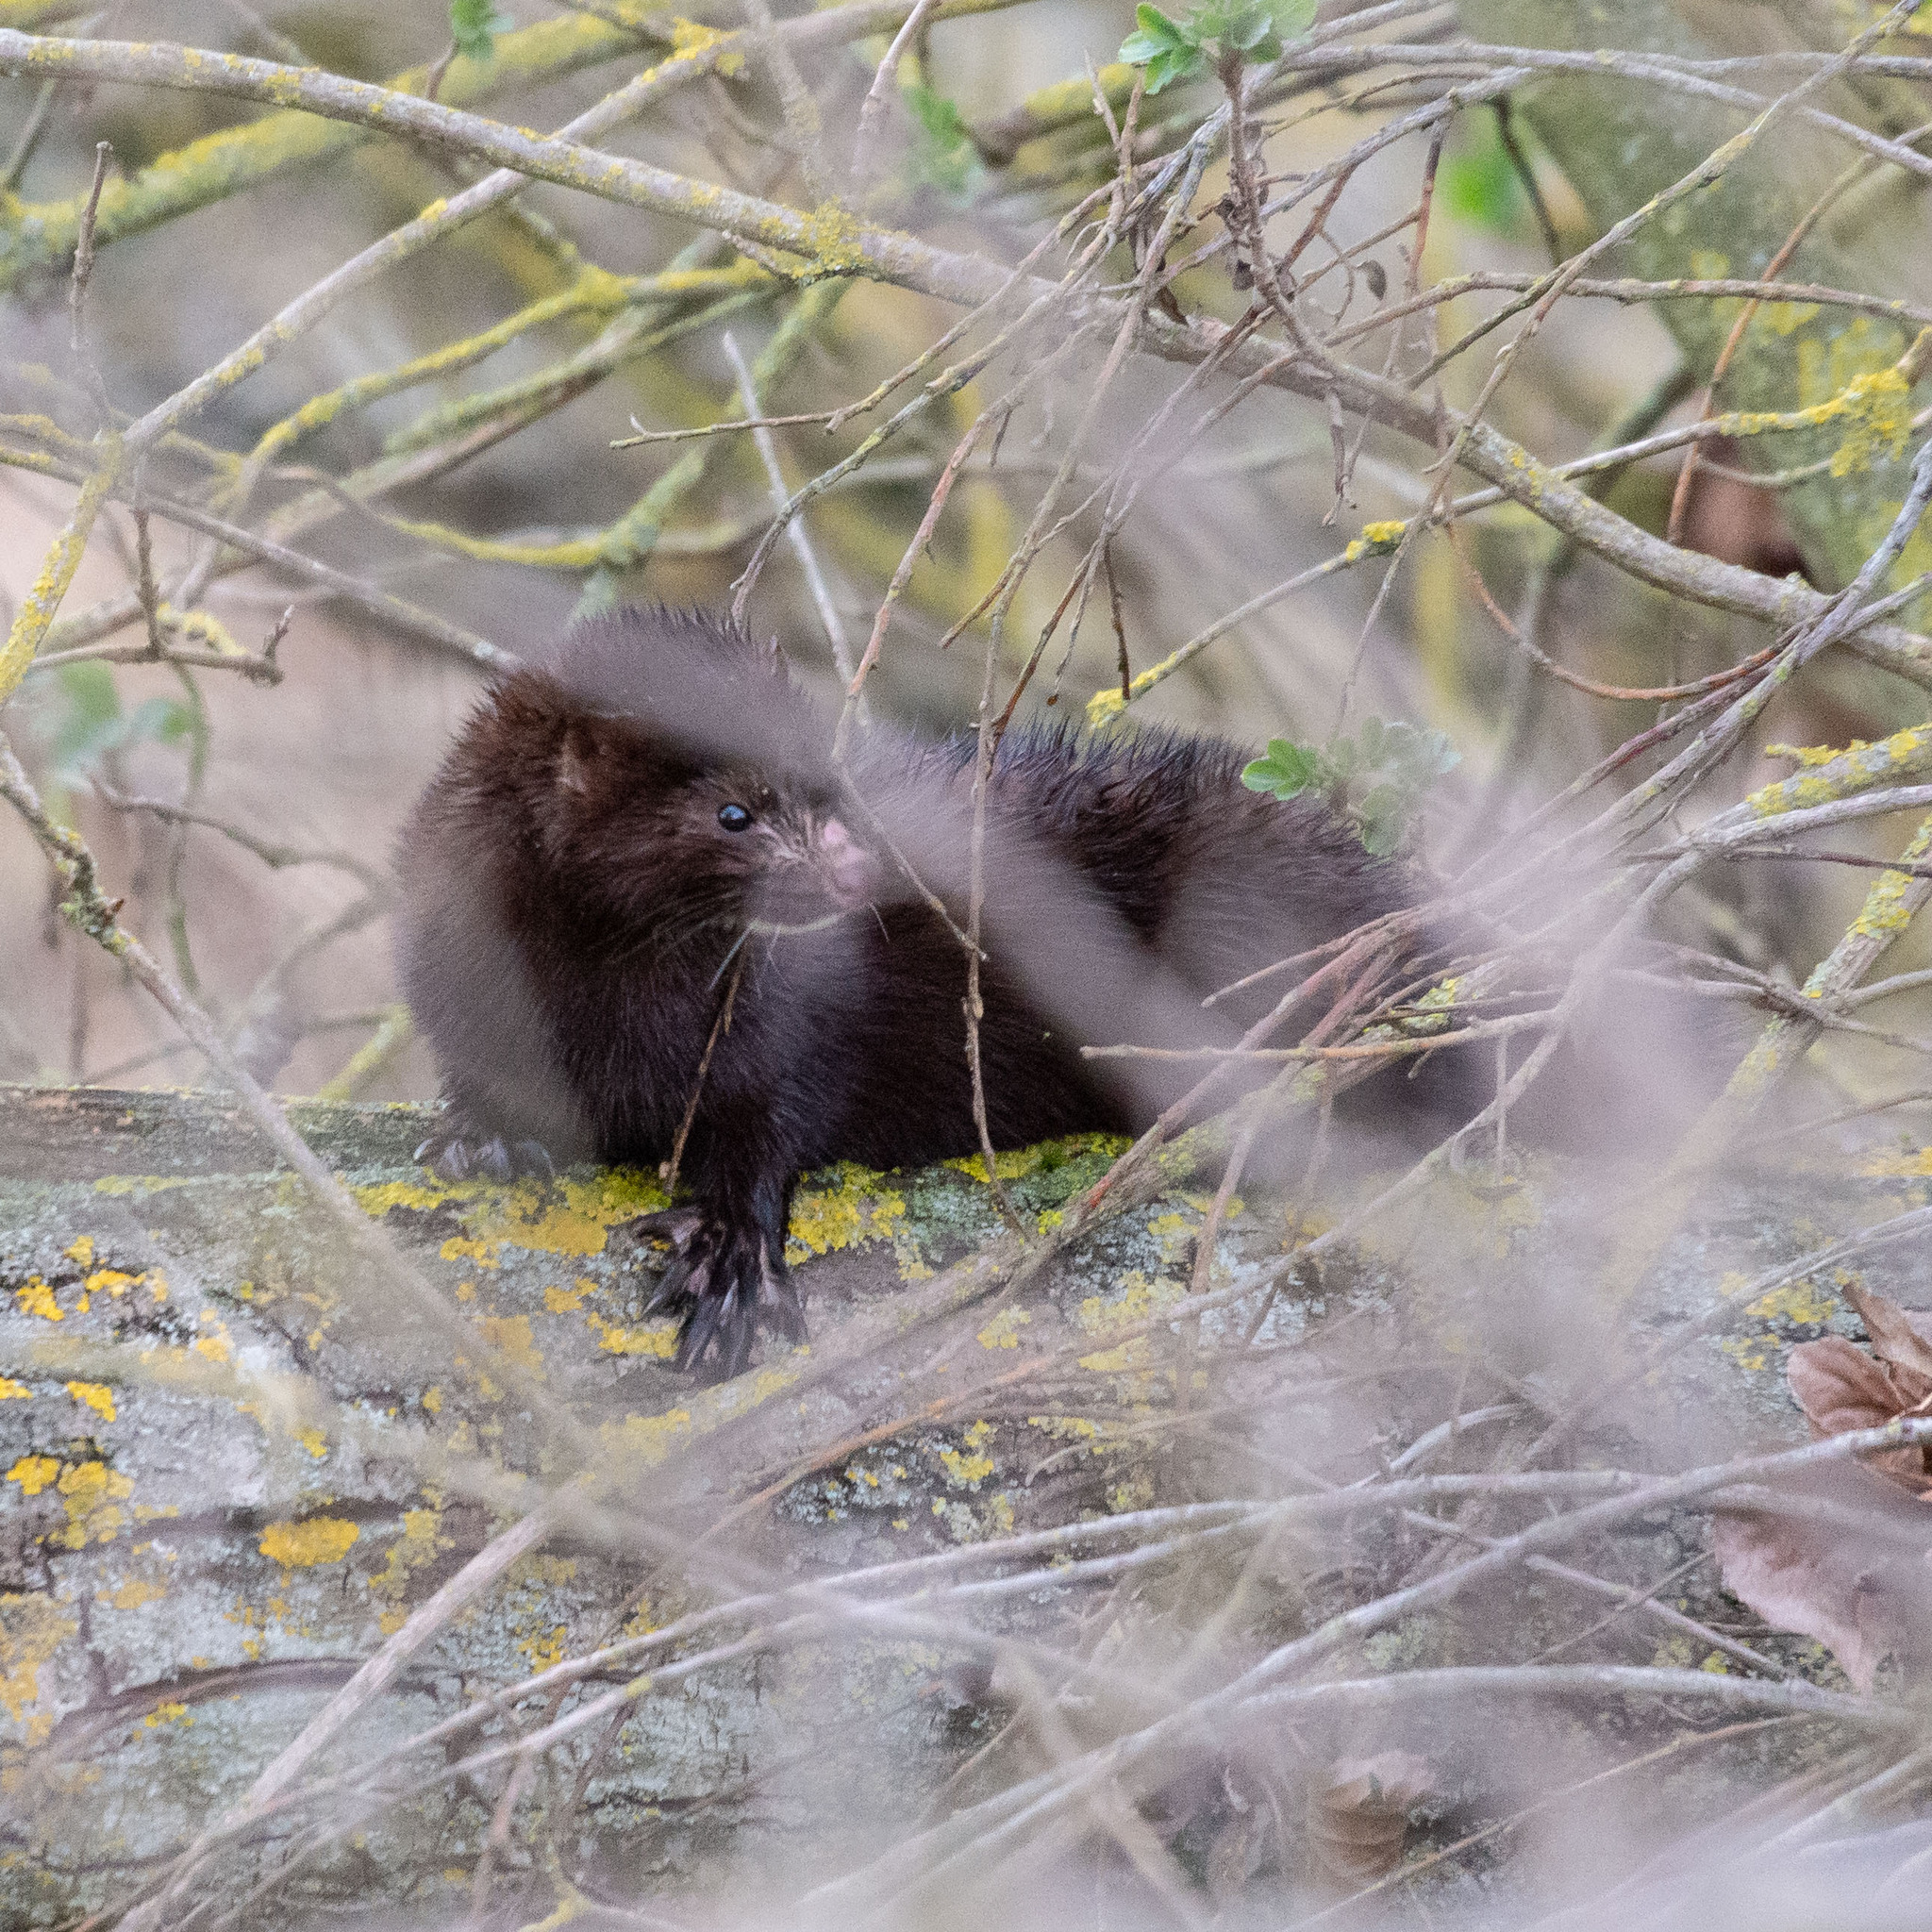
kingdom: Animalia
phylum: Chordata
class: Mammalia
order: Carnivora
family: Mustelidae
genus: Mustela
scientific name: Mustela
